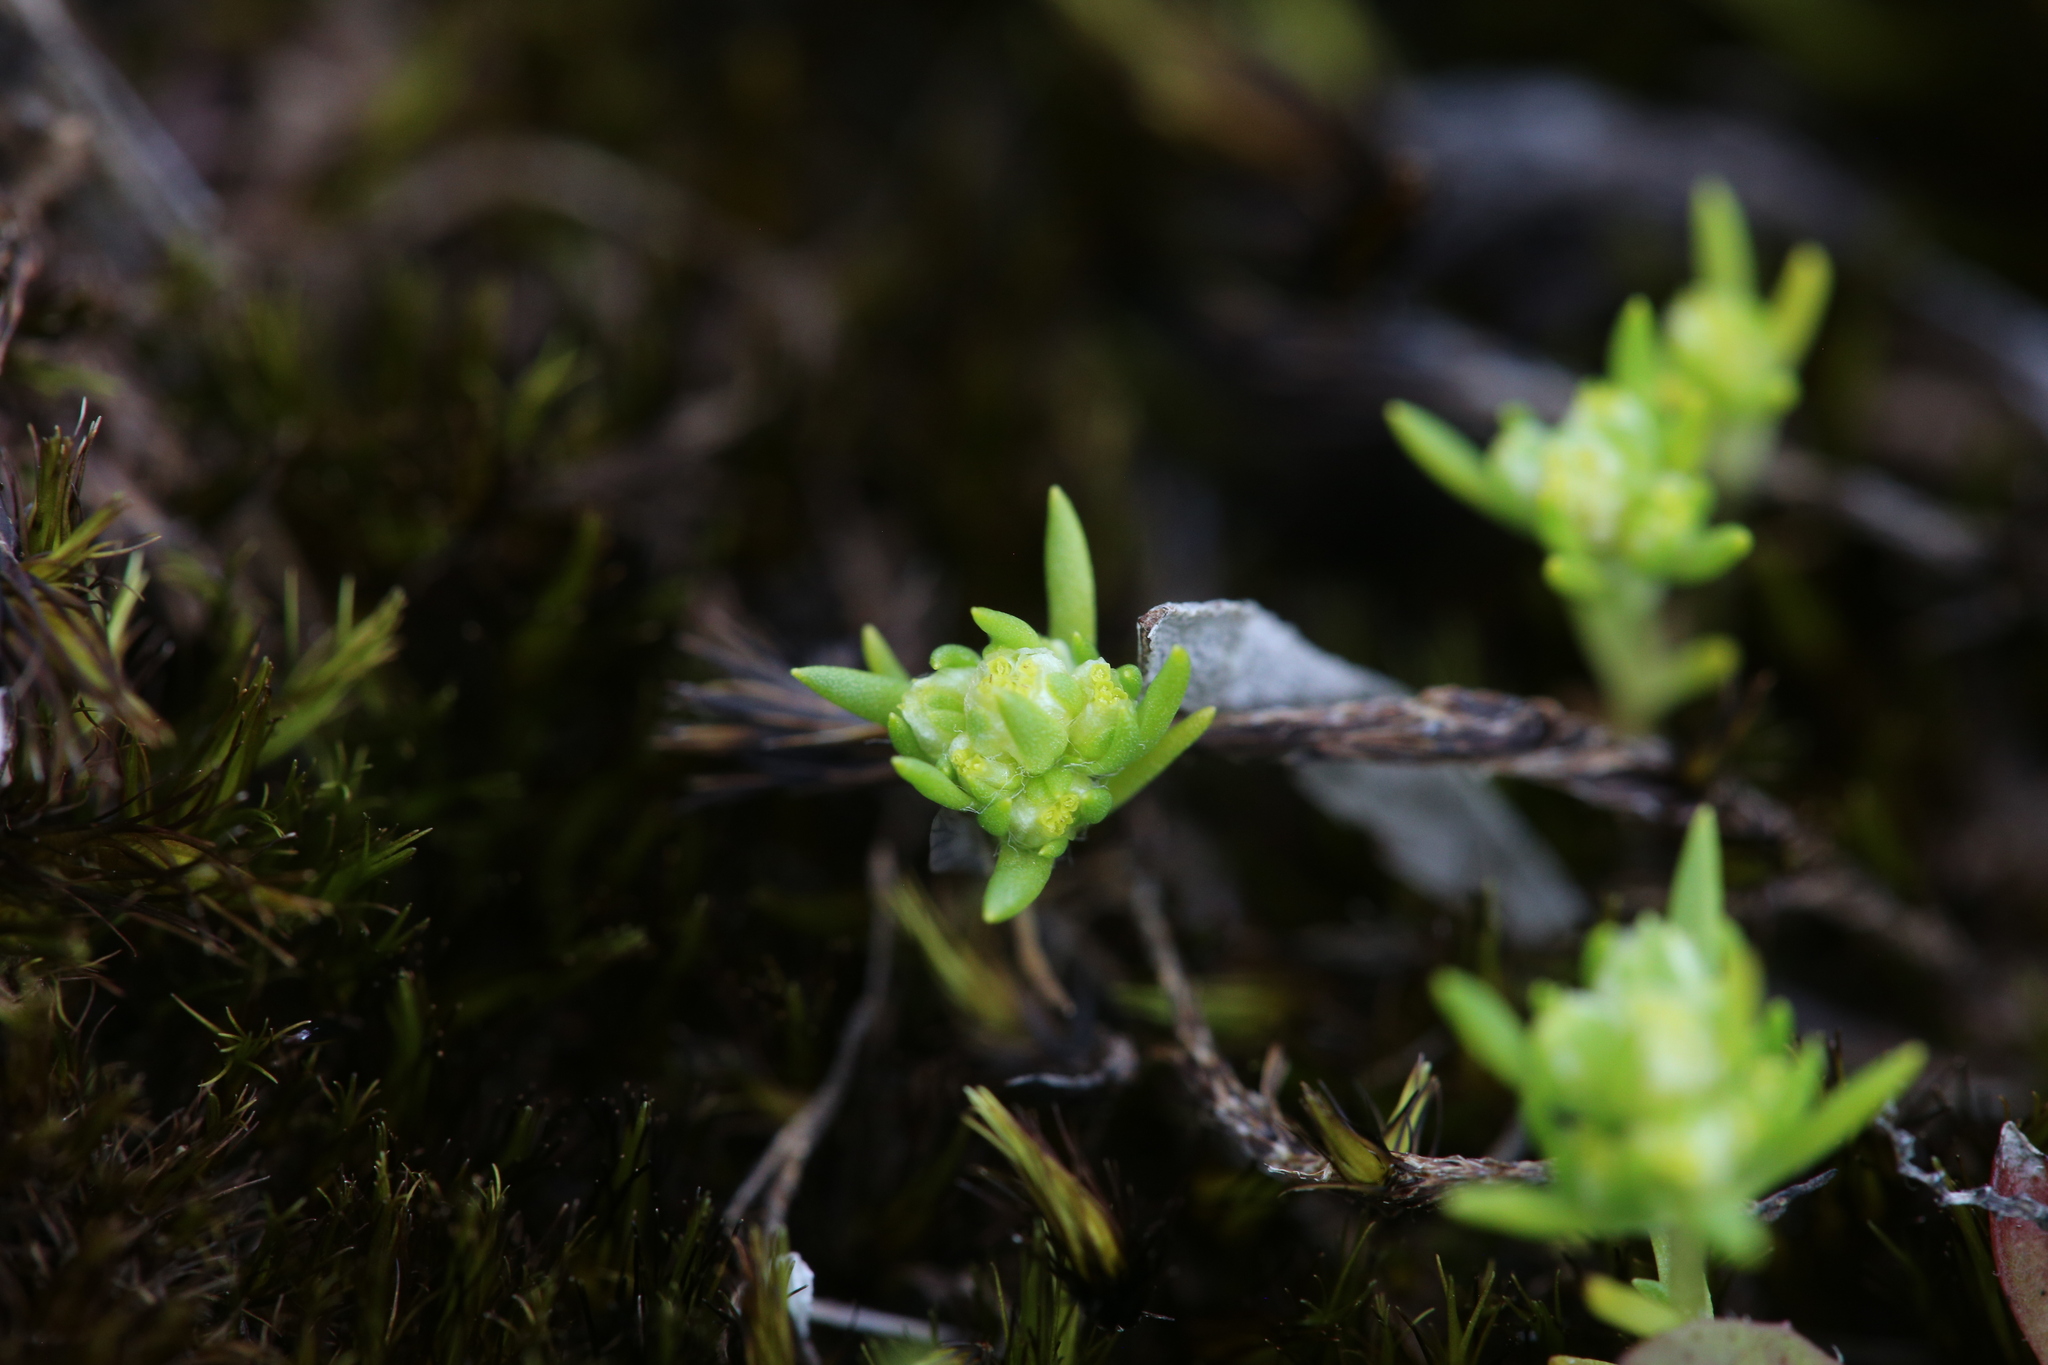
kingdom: Plantae
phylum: Tracheophyta
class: Magnoliopsida
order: Asterales
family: Asteraceae
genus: Siloxerus
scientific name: Siloxerus multiflorus
